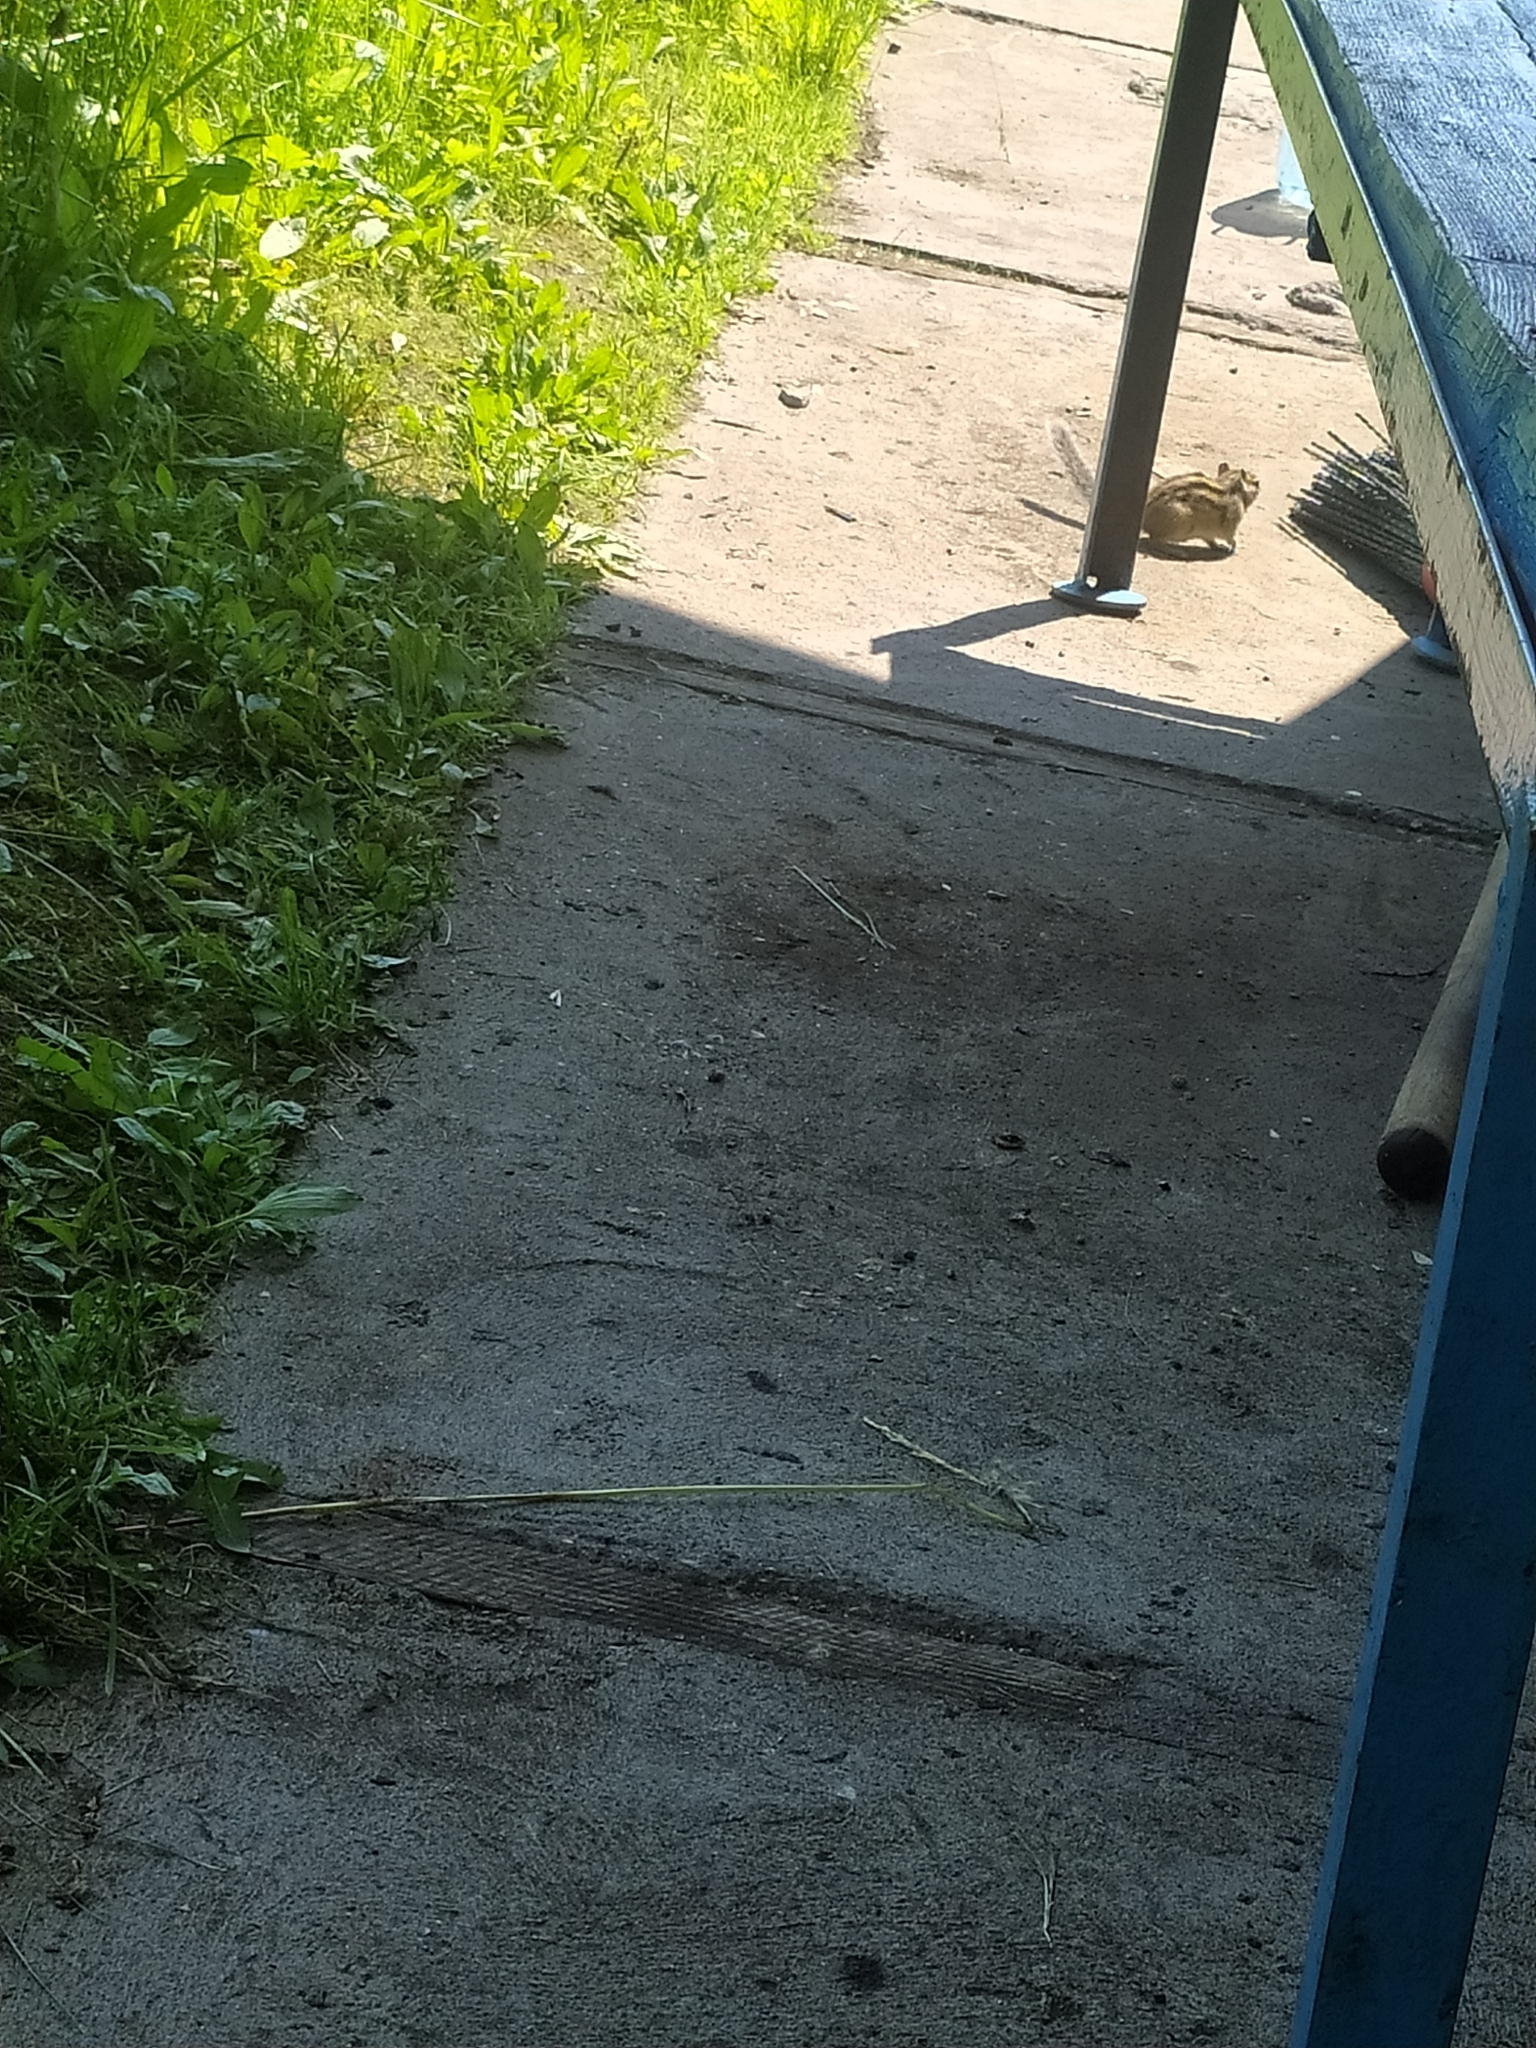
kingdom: Animalia
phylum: Chordata
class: Mammalia
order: Rodentia
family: Sciuridae
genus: Tamias
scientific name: Tamias sibiricus
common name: Siberian chipmunk
